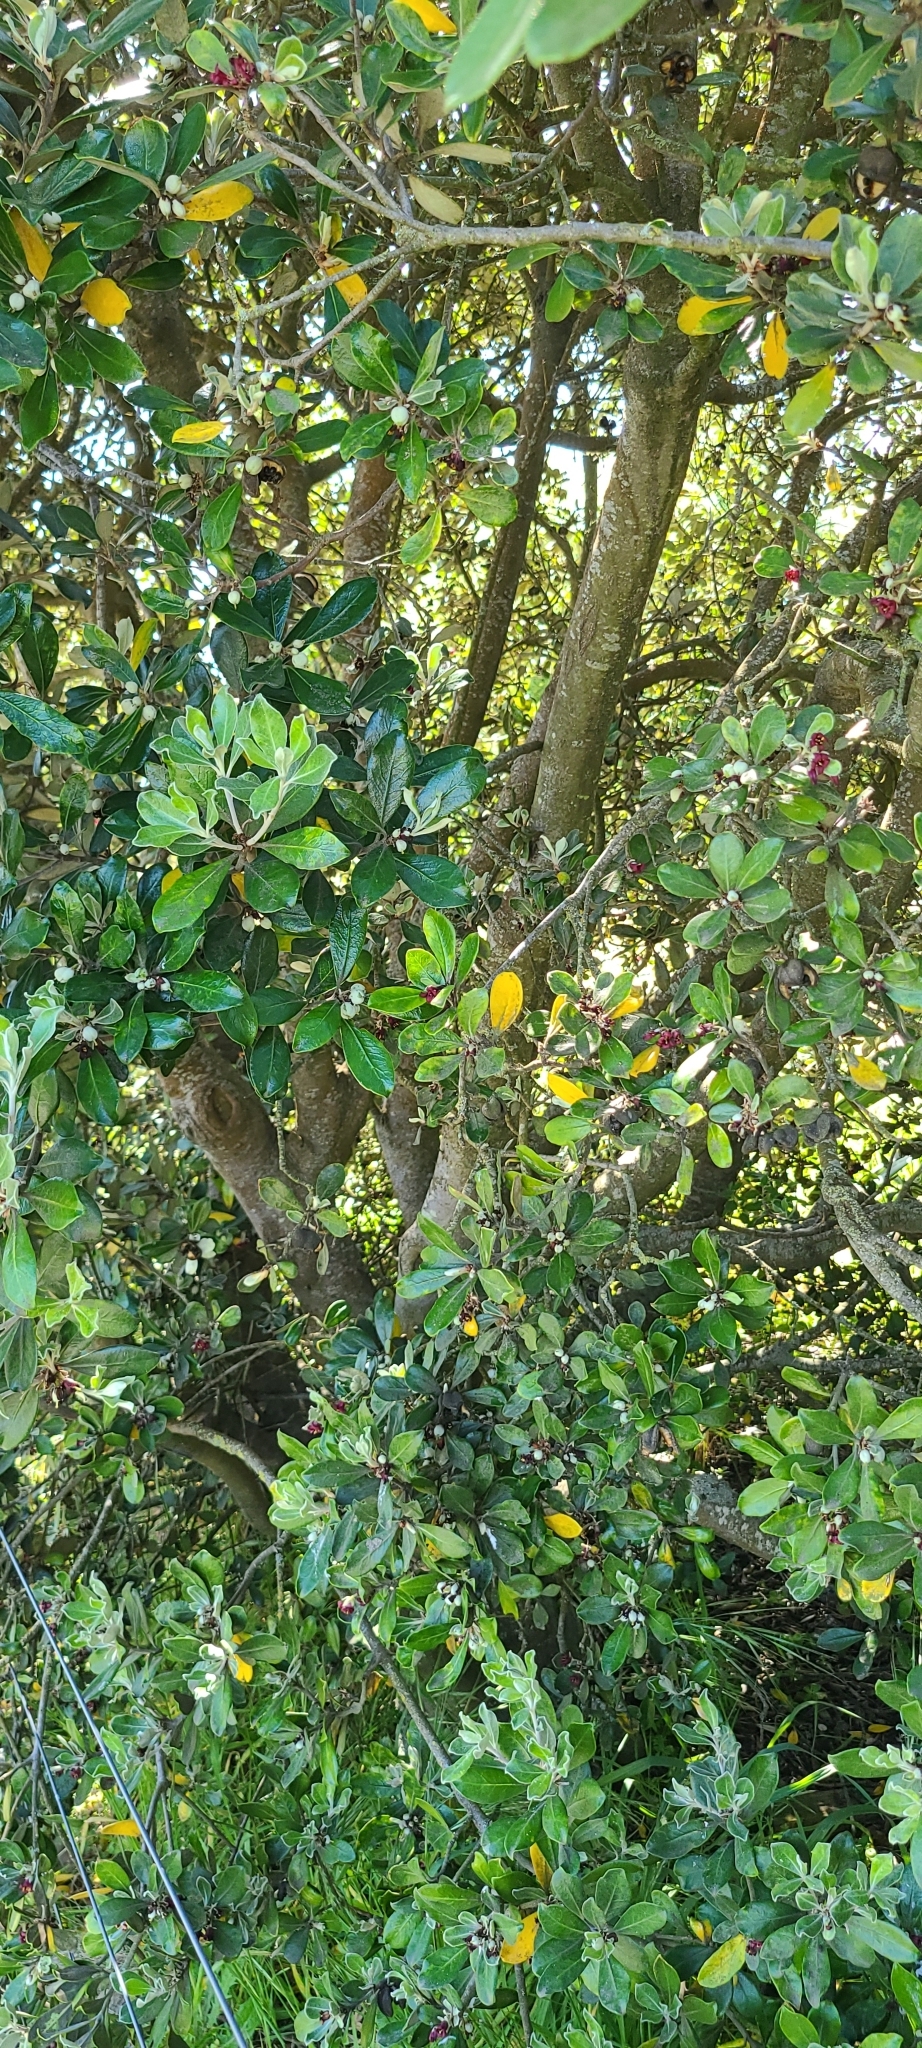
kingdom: Plantae
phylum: Tracheophyta
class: Magnoliopsida
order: Apiales
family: Pittosporaceae
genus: Pittosporum
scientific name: Pittosporum crassifolium
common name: Karo
